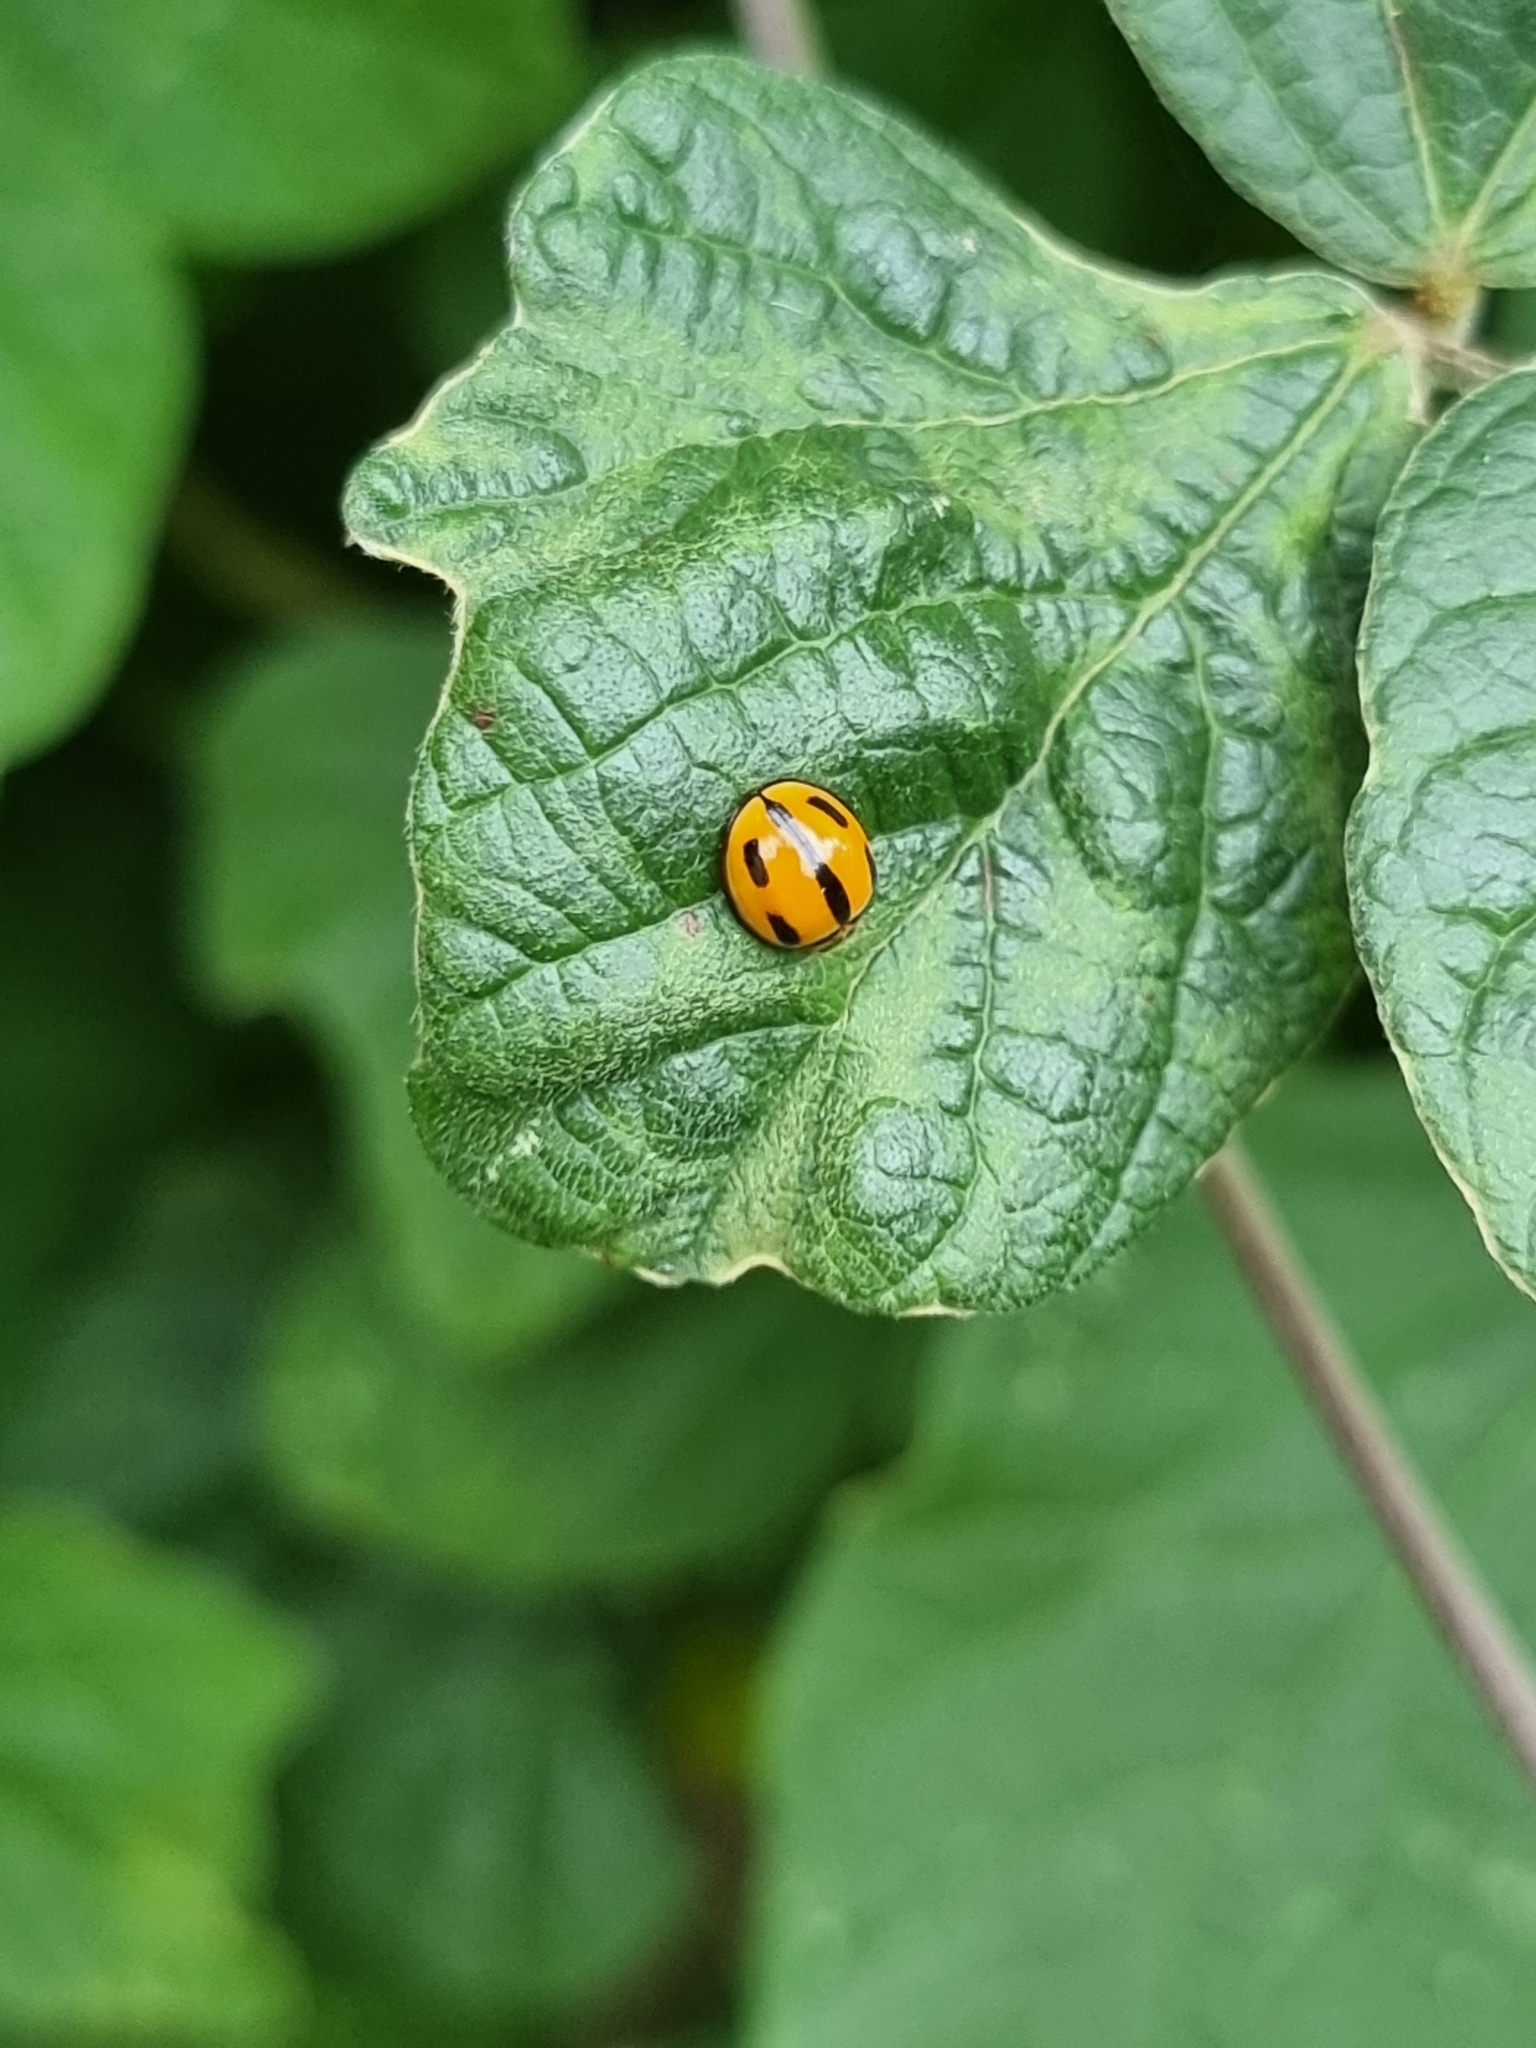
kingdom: Animalia
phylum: Arthropoda
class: Insecta
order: Coleoptera
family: Coccinellidae
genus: Coelophora
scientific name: Coelophora inaequalis
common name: Common australian lady beetle
